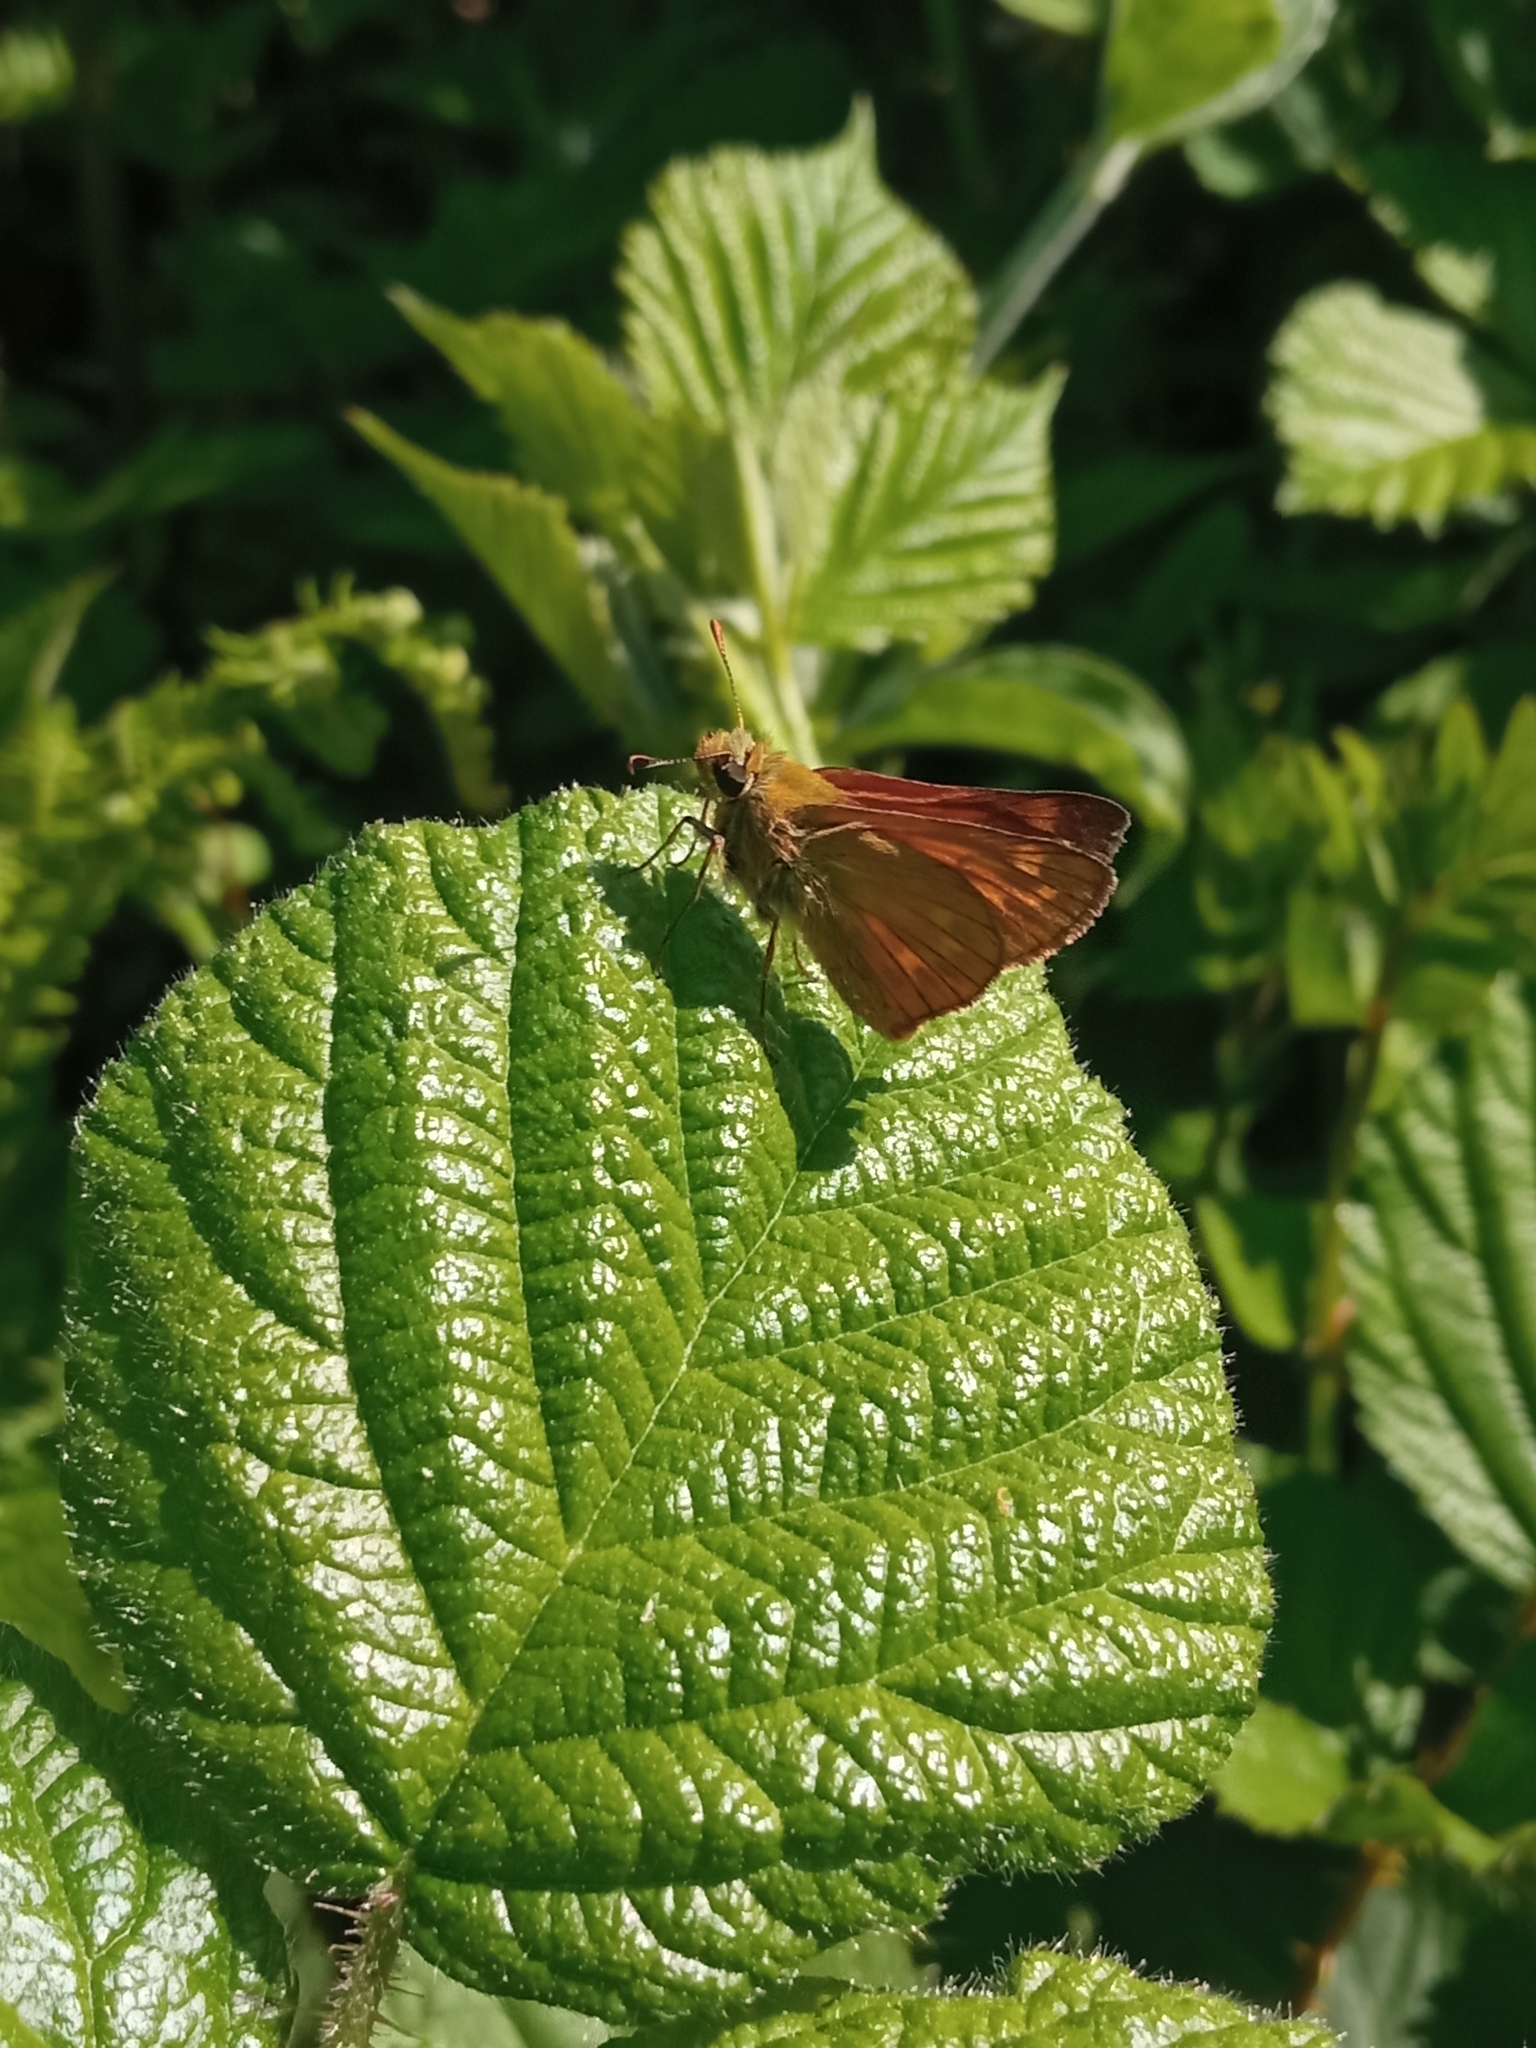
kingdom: Animalia
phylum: Arthropoda
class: Insecta
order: Lepidoptera
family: Hesperiidae
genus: Ochlodes
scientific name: Ochlodes venata
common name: Large skipper
